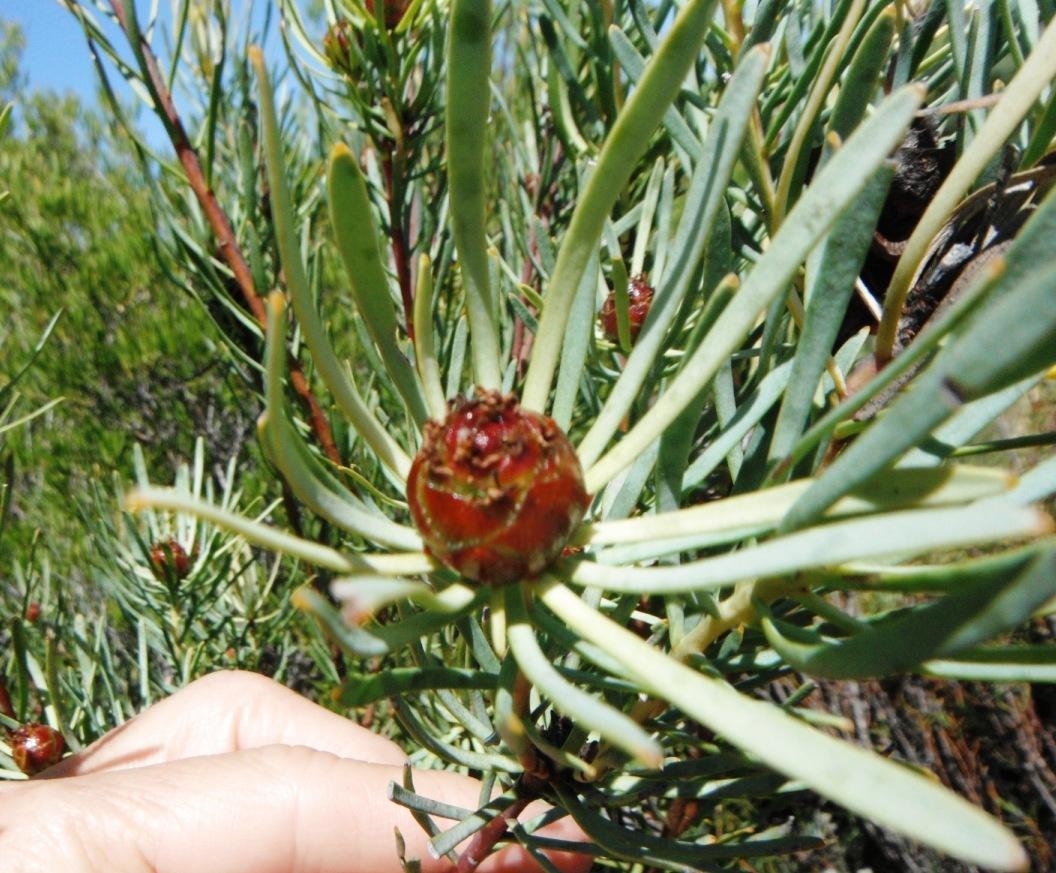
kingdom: Plantae
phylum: Tracheophyta
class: Magnoliopsida
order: Proteales
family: Proteaceae
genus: Leucadendron
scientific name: Leucadendron meyerianum
